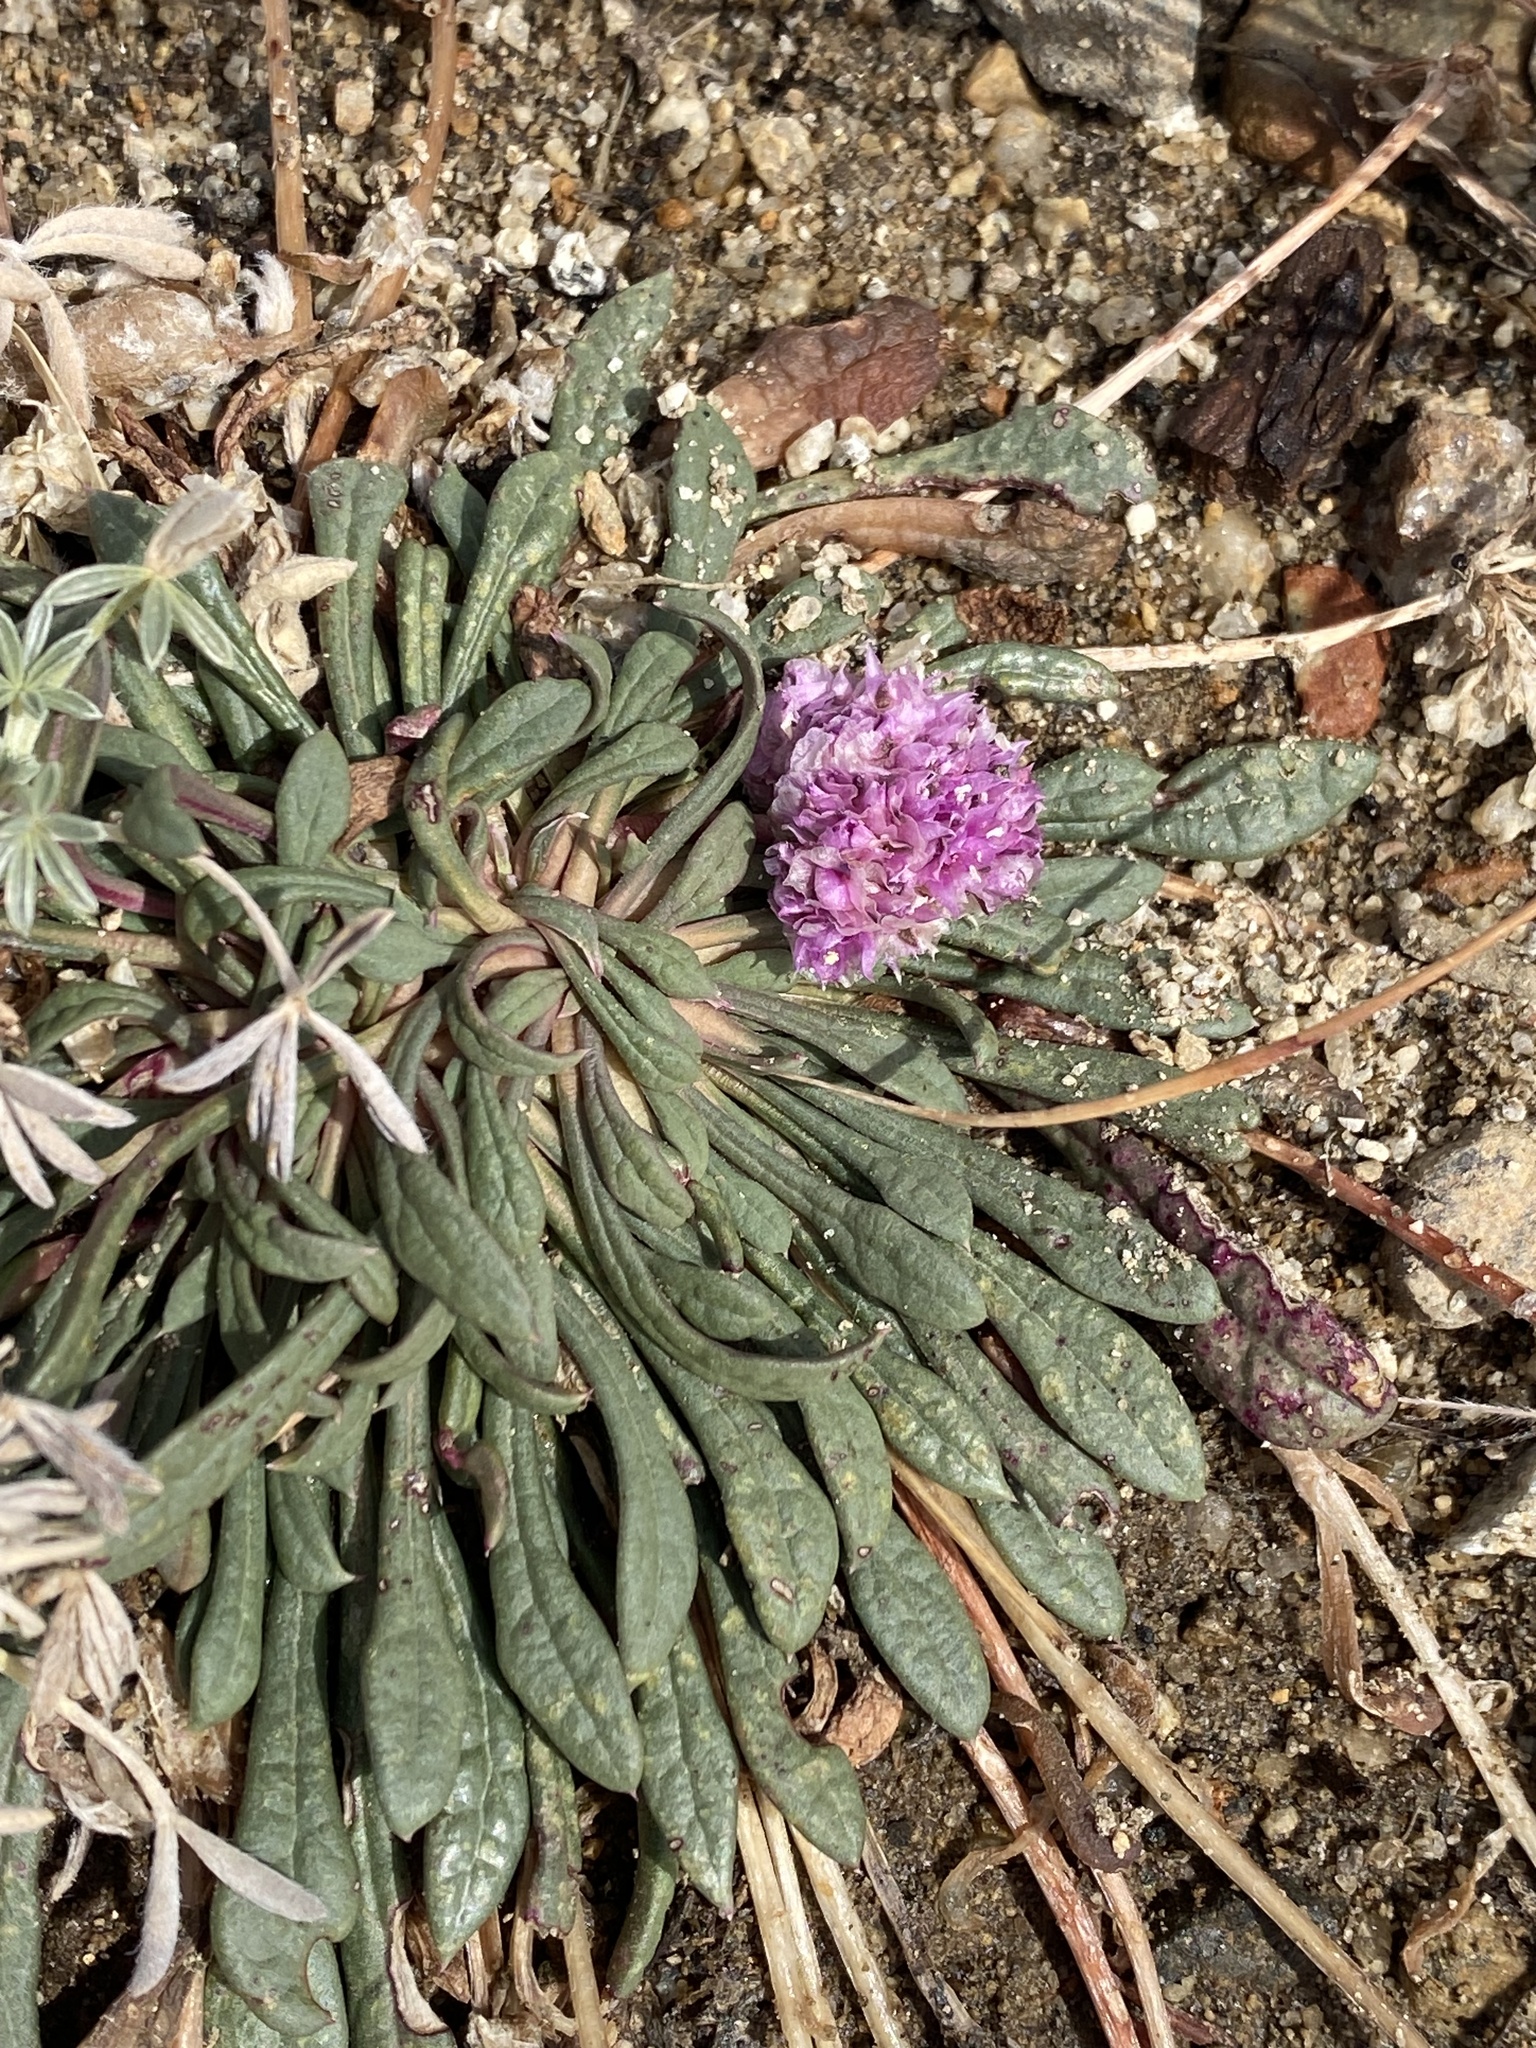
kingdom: Plantae
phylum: Tracheophyta
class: Magnoliopsida
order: Caryophyllales
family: Montiaceae
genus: Calyptridium
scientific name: Calyptridium monospermum
